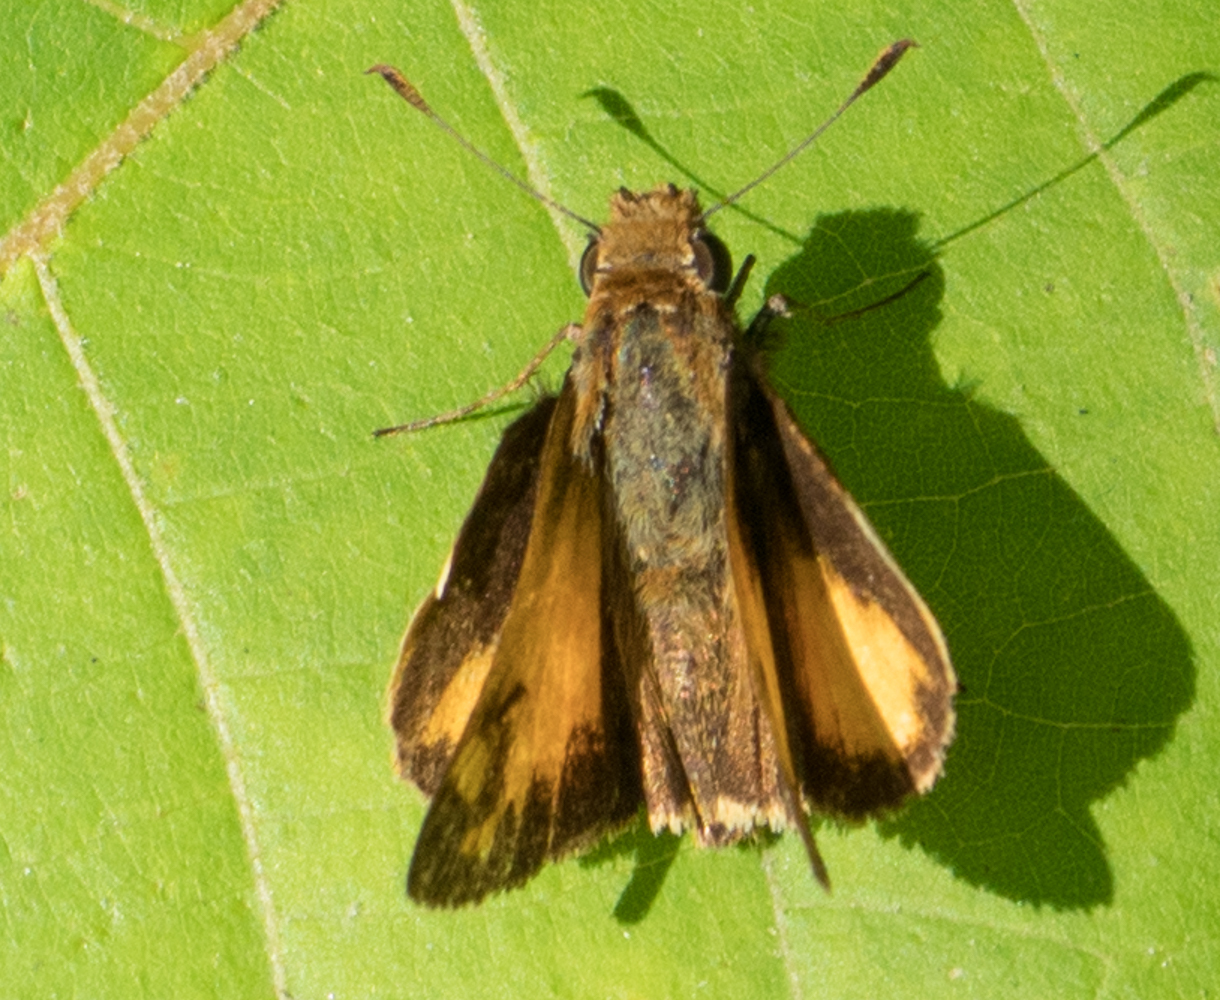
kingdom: Animalia
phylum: Arthropoda
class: Insecta
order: Lepidoptera
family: Hesperiidae
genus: Lon
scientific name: Lon zabulon
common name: Zabulon skipper
